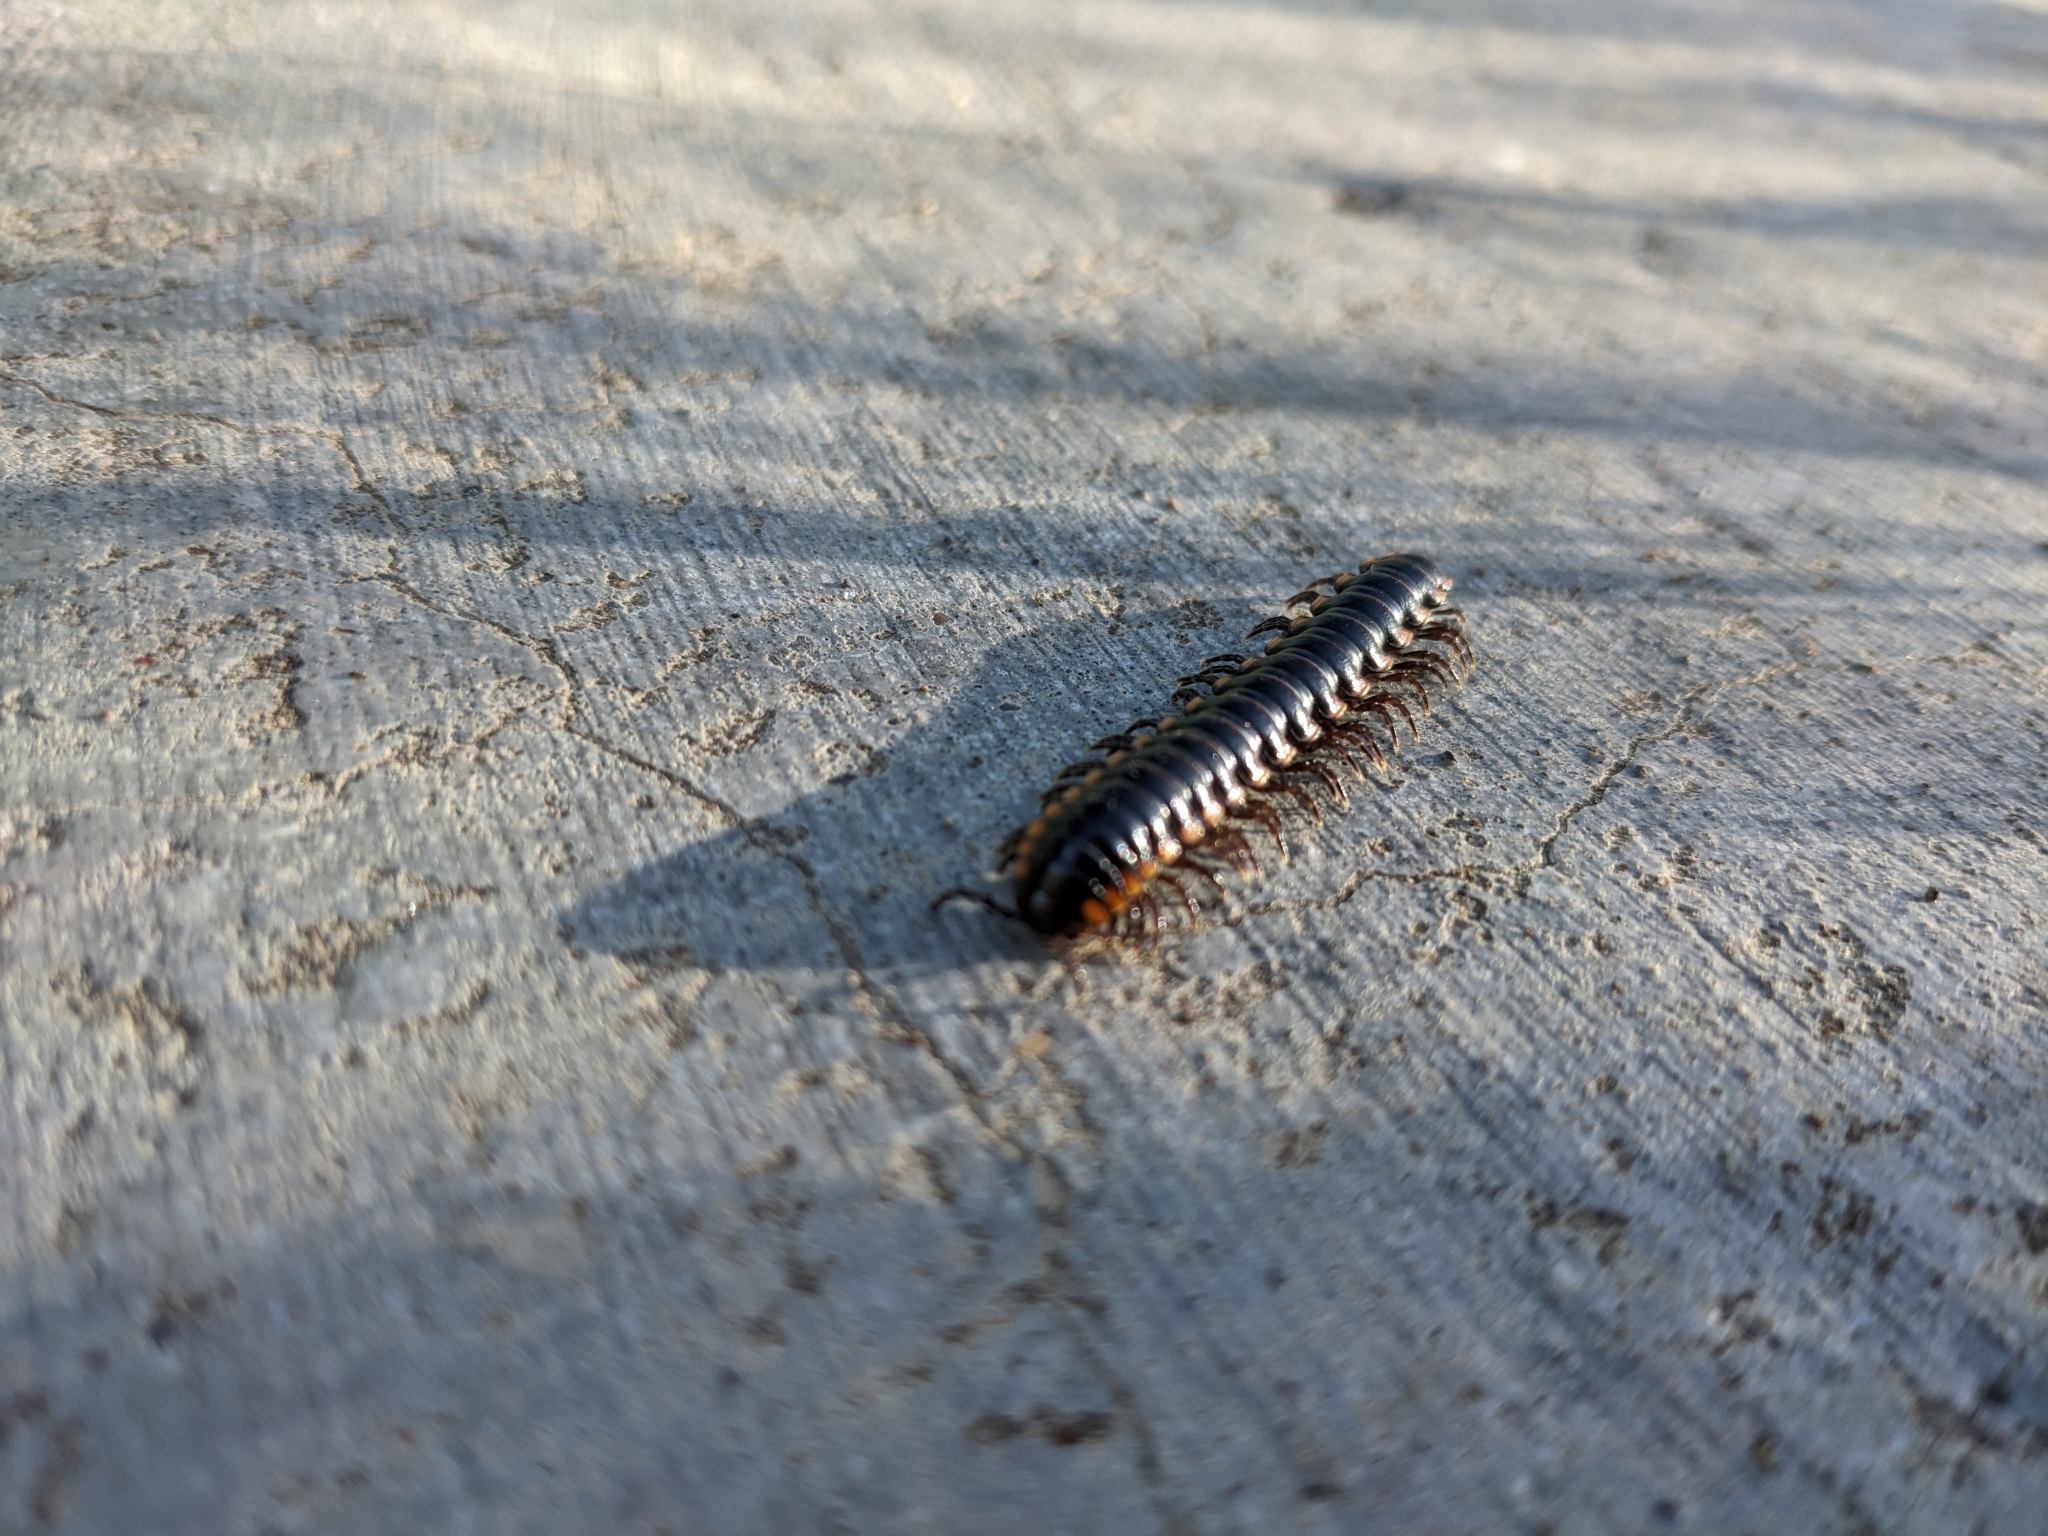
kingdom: Animalia
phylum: Arthropoda
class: Diplopoda
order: Polydesmida
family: Xystodesmidae
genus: Harpaphe
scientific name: Harpaphe haydeniana
